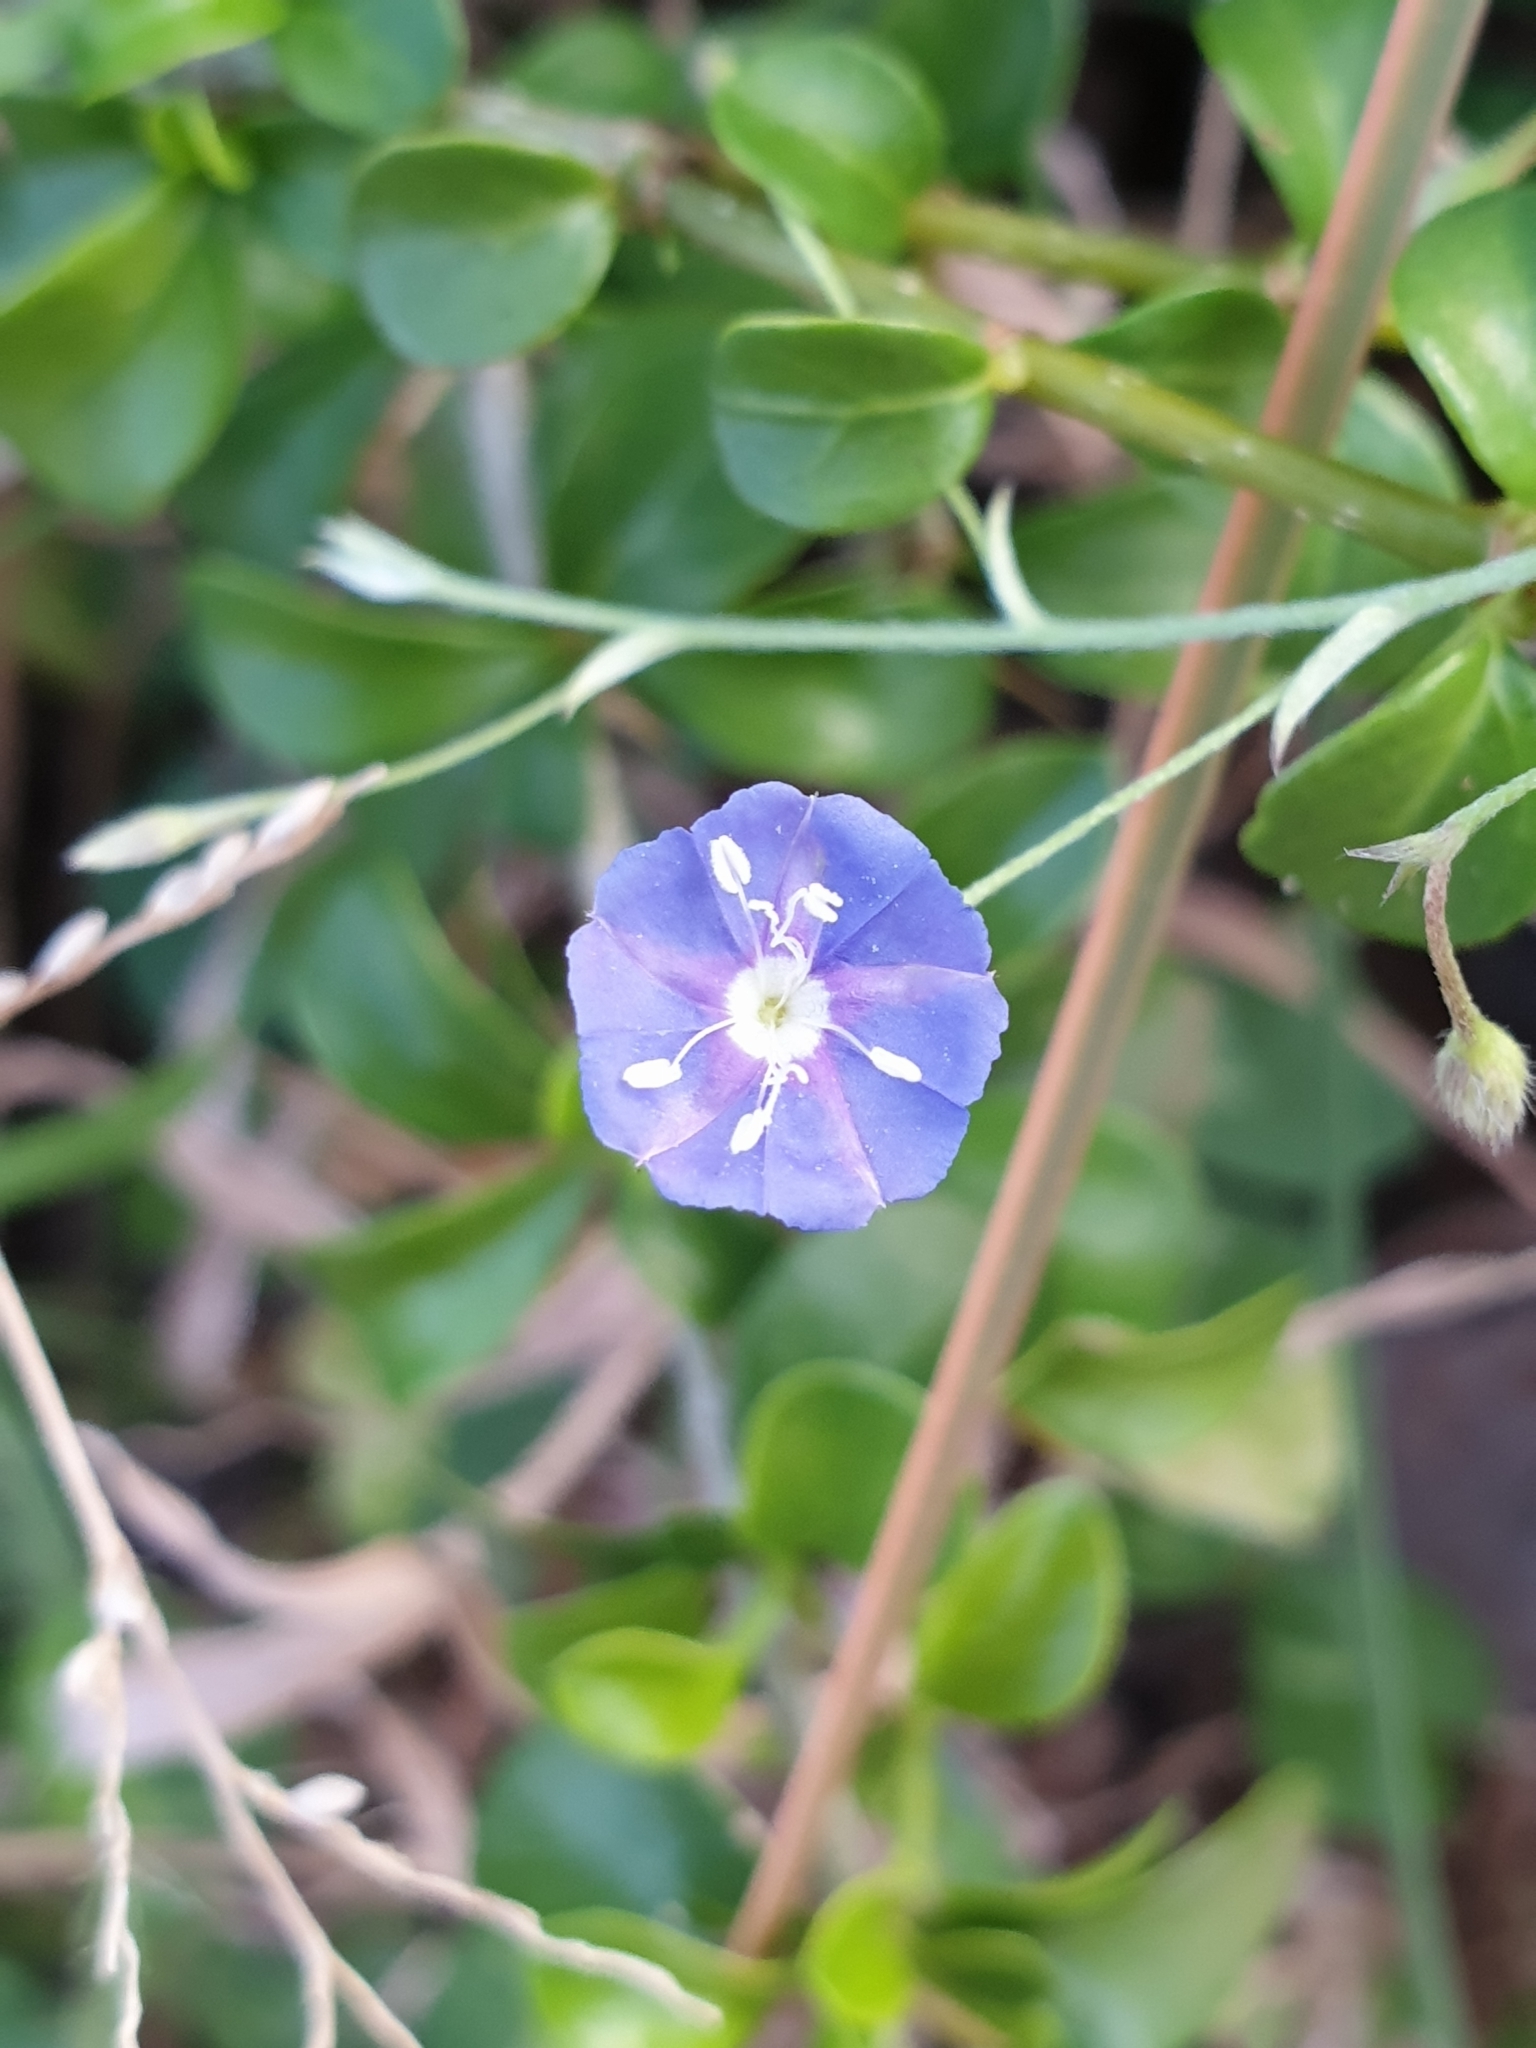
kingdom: Plantae
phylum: Tracheophyta
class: Magnoliopsida
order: Solanales
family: Convolvulaceae
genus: Evolvulus
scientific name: Evolvulus alsinoides
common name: Slender dwarf morning-glory
